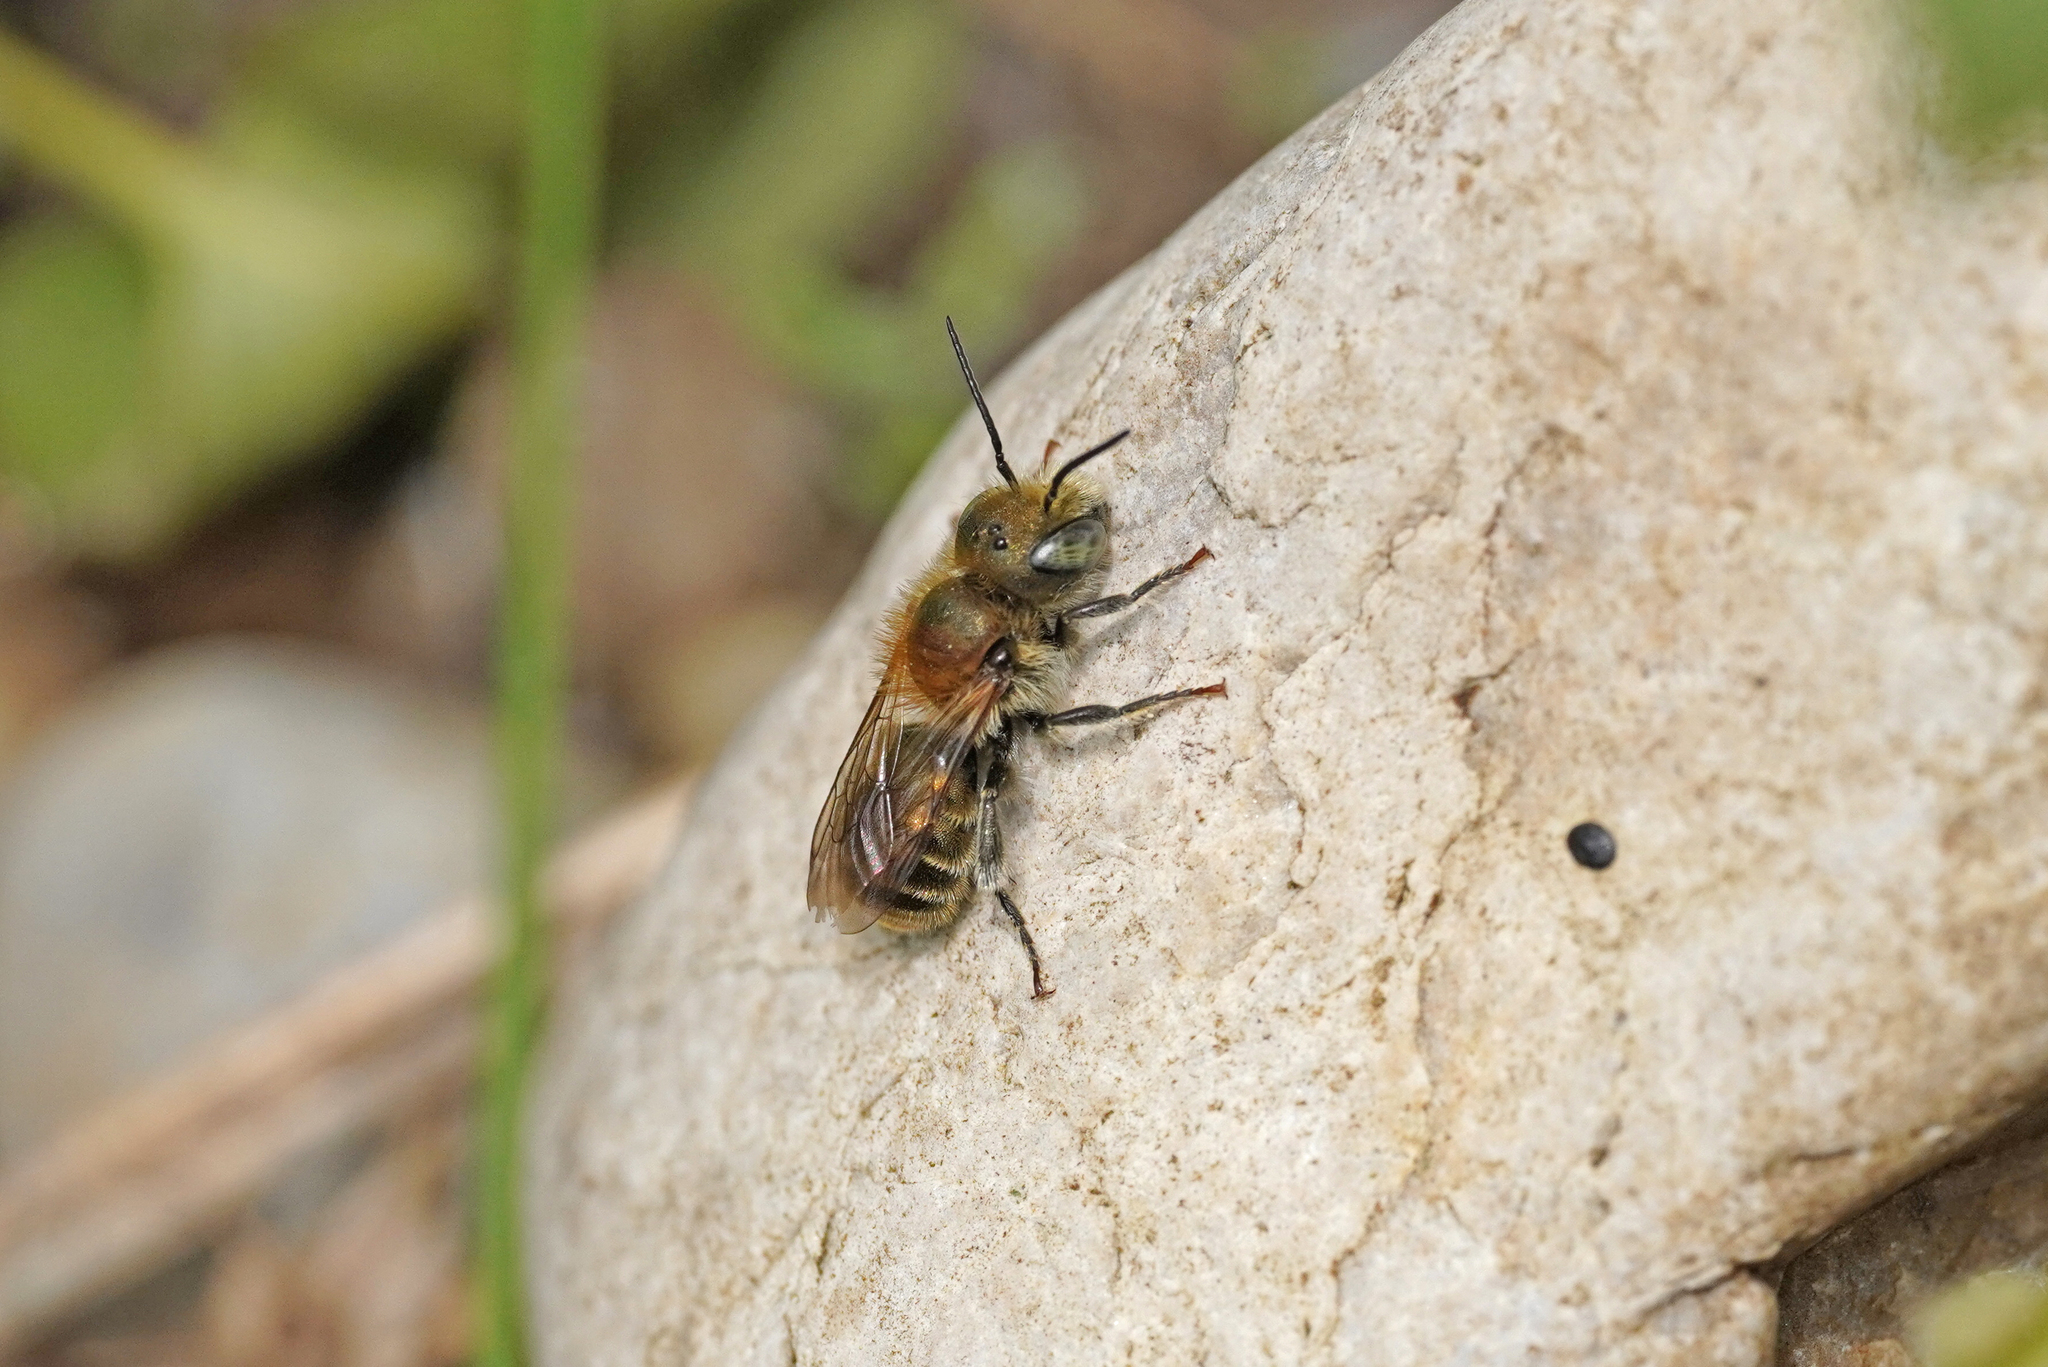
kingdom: Animalia
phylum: Arthropoda
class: Insecta
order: Hymenoptera
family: Megachilidae
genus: Osmia
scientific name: Osmia caerulescens
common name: Blue mason bee
